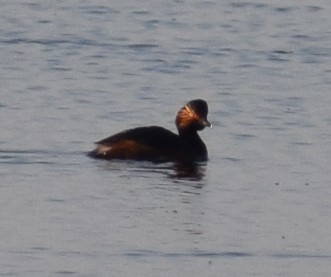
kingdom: Animalia
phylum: Chordata
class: Aves
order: Podicipediformes
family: Podicipedidae
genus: Podiceps
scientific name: Podiceps nigricollis
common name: Black-necked grebe
